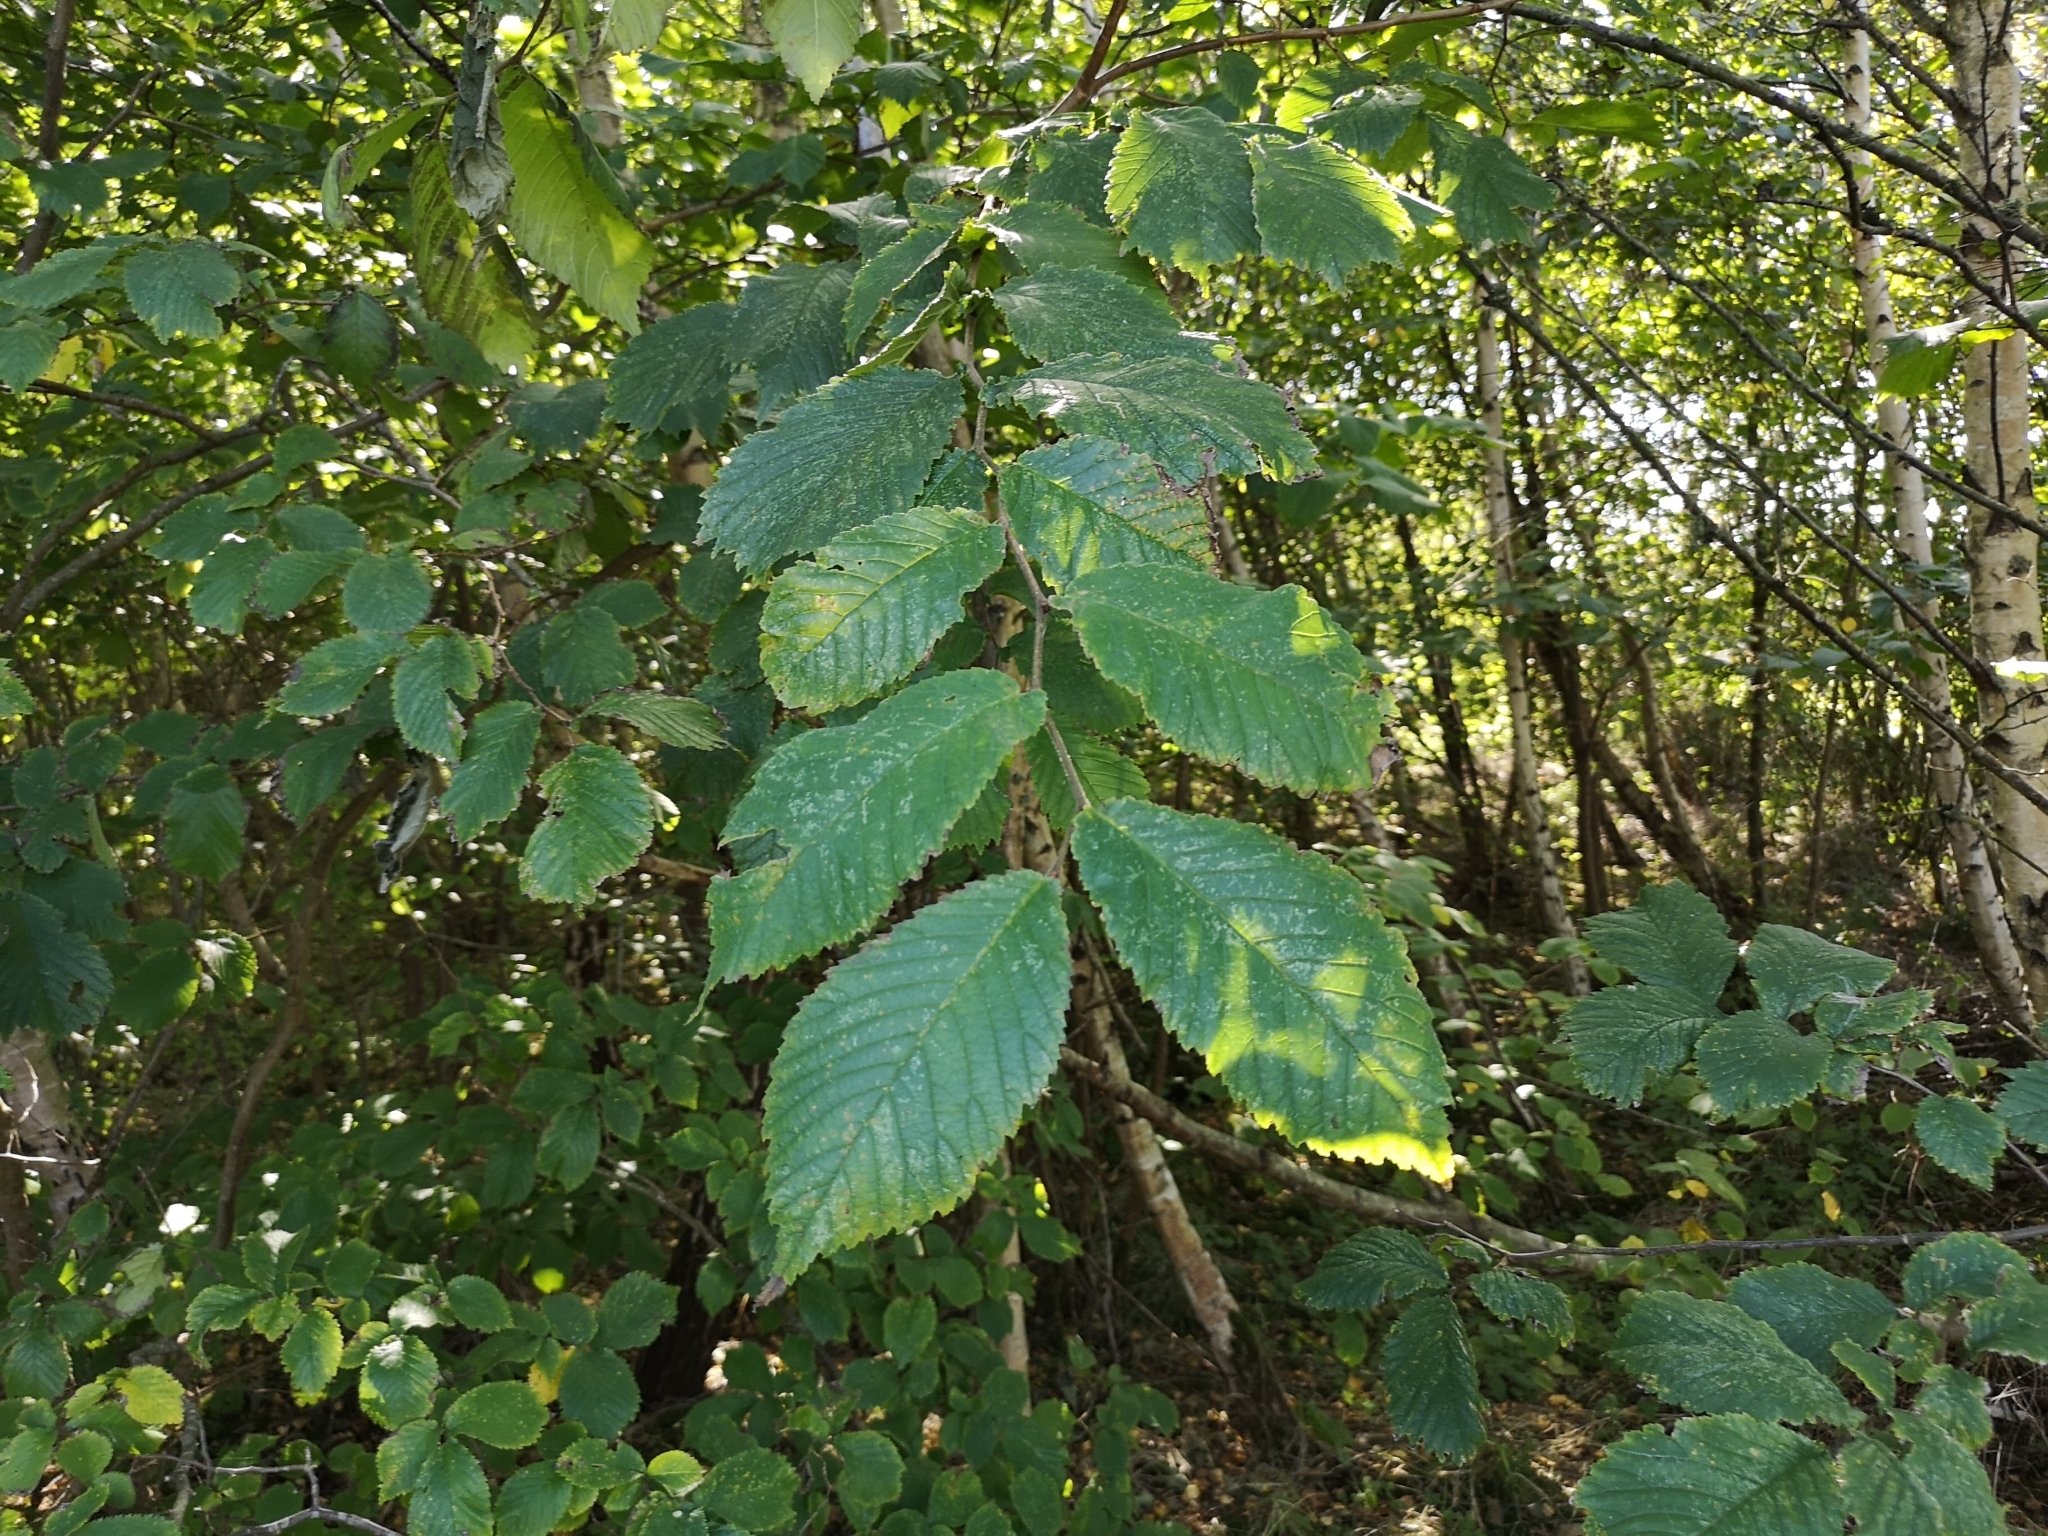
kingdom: Plantae
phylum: Tracheophyta
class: Magnoliopsida
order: Rosales
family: Ulmaceae
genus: Ulmus
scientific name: Ulmus glabra
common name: Wych elm
